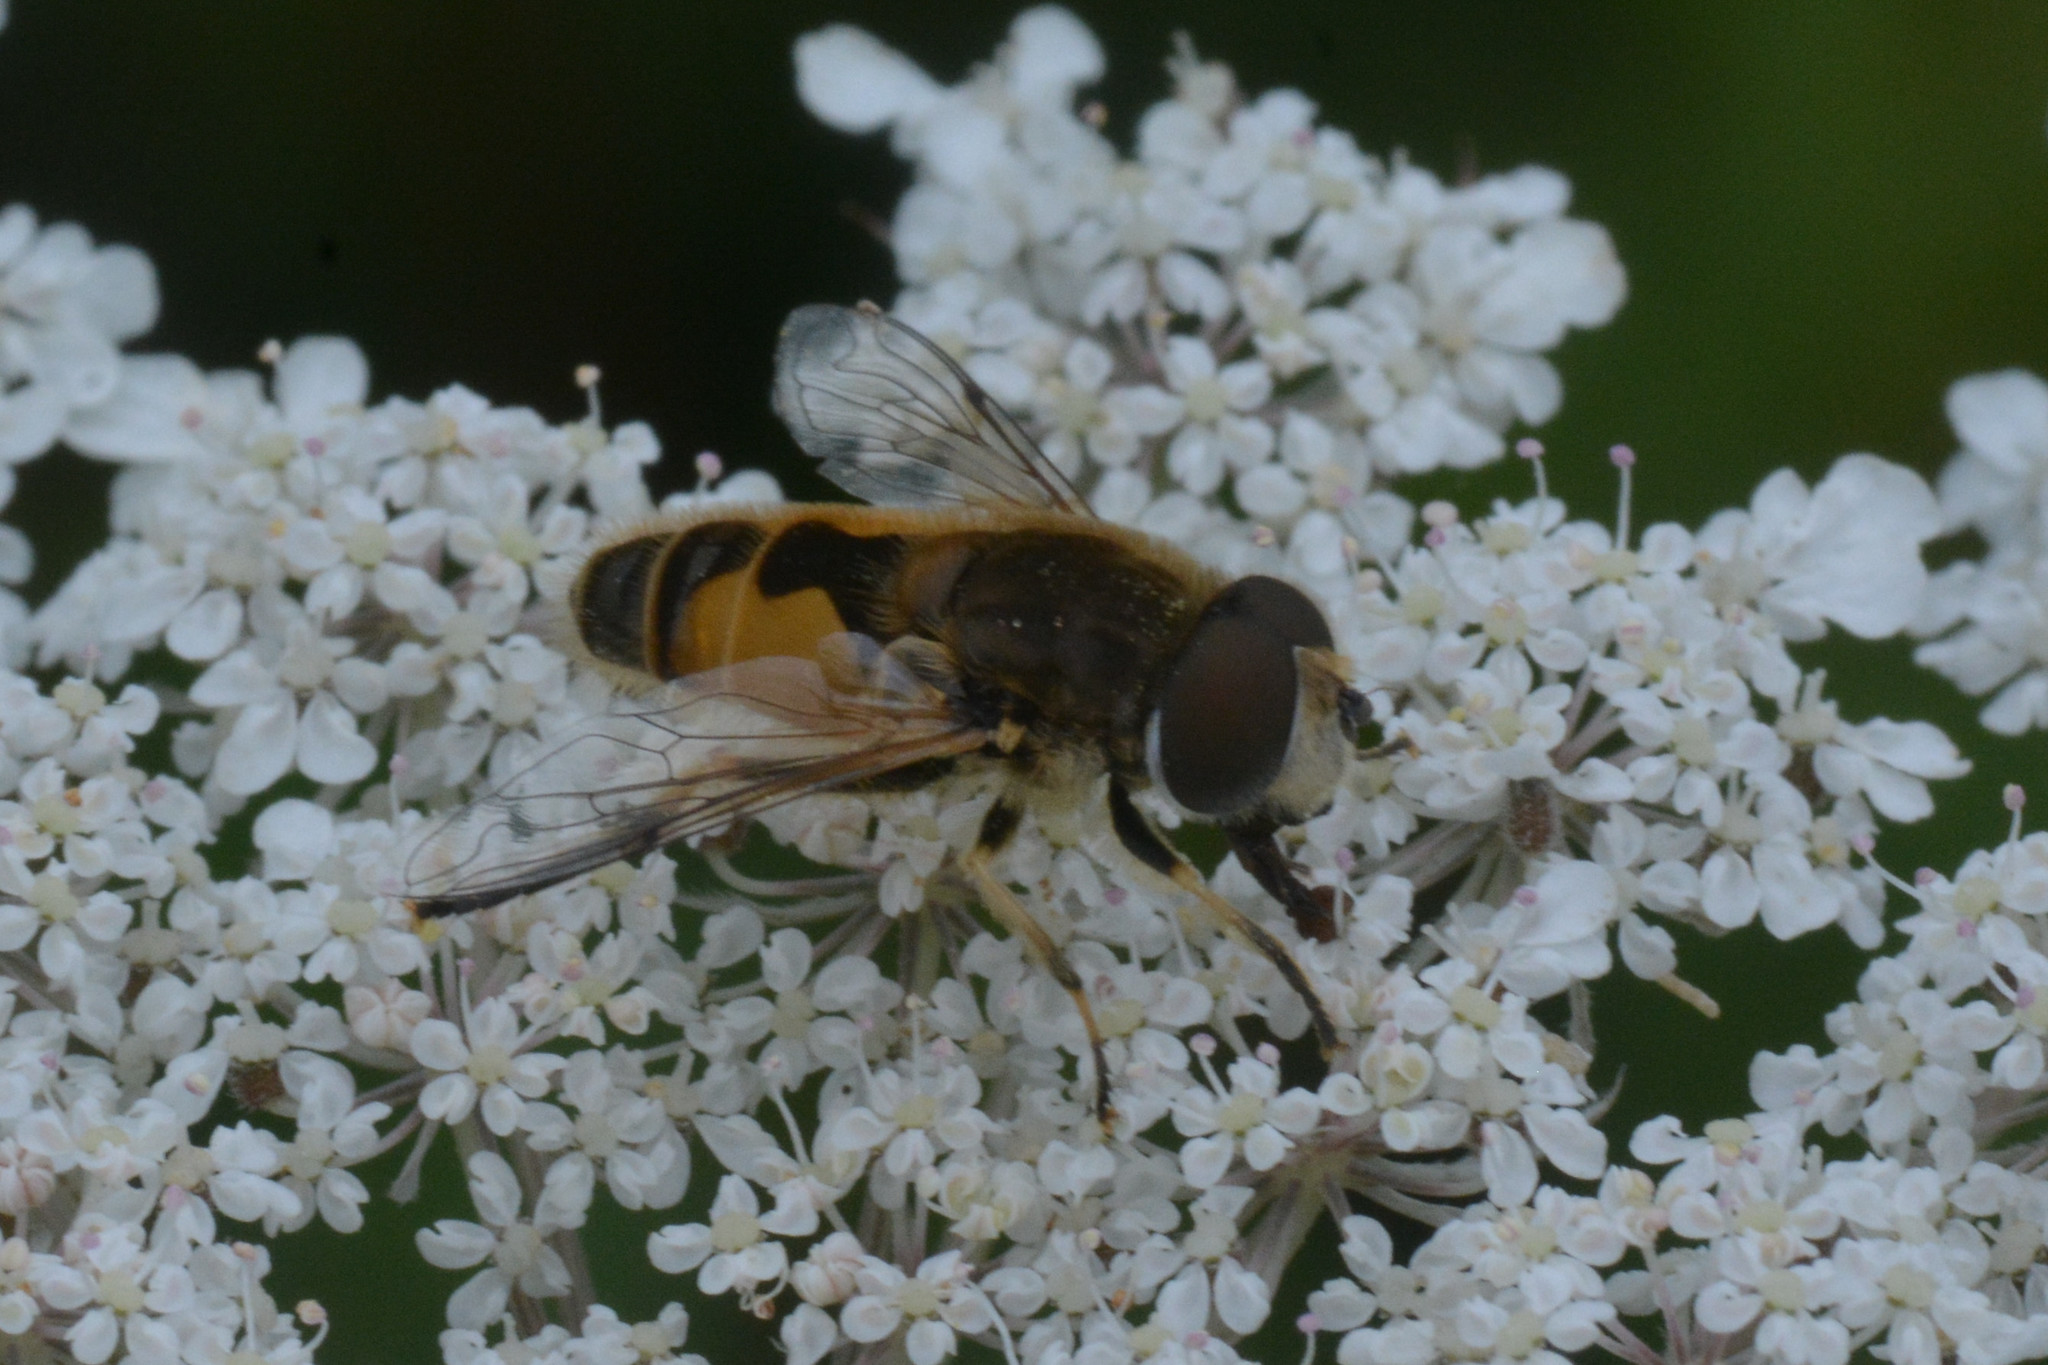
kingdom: Animalia
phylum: Arthropoda
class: Insecta
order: Diptera
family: Syrphidae
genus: Eristalis
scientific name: Eristalis arbustorum
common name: Hover fly
